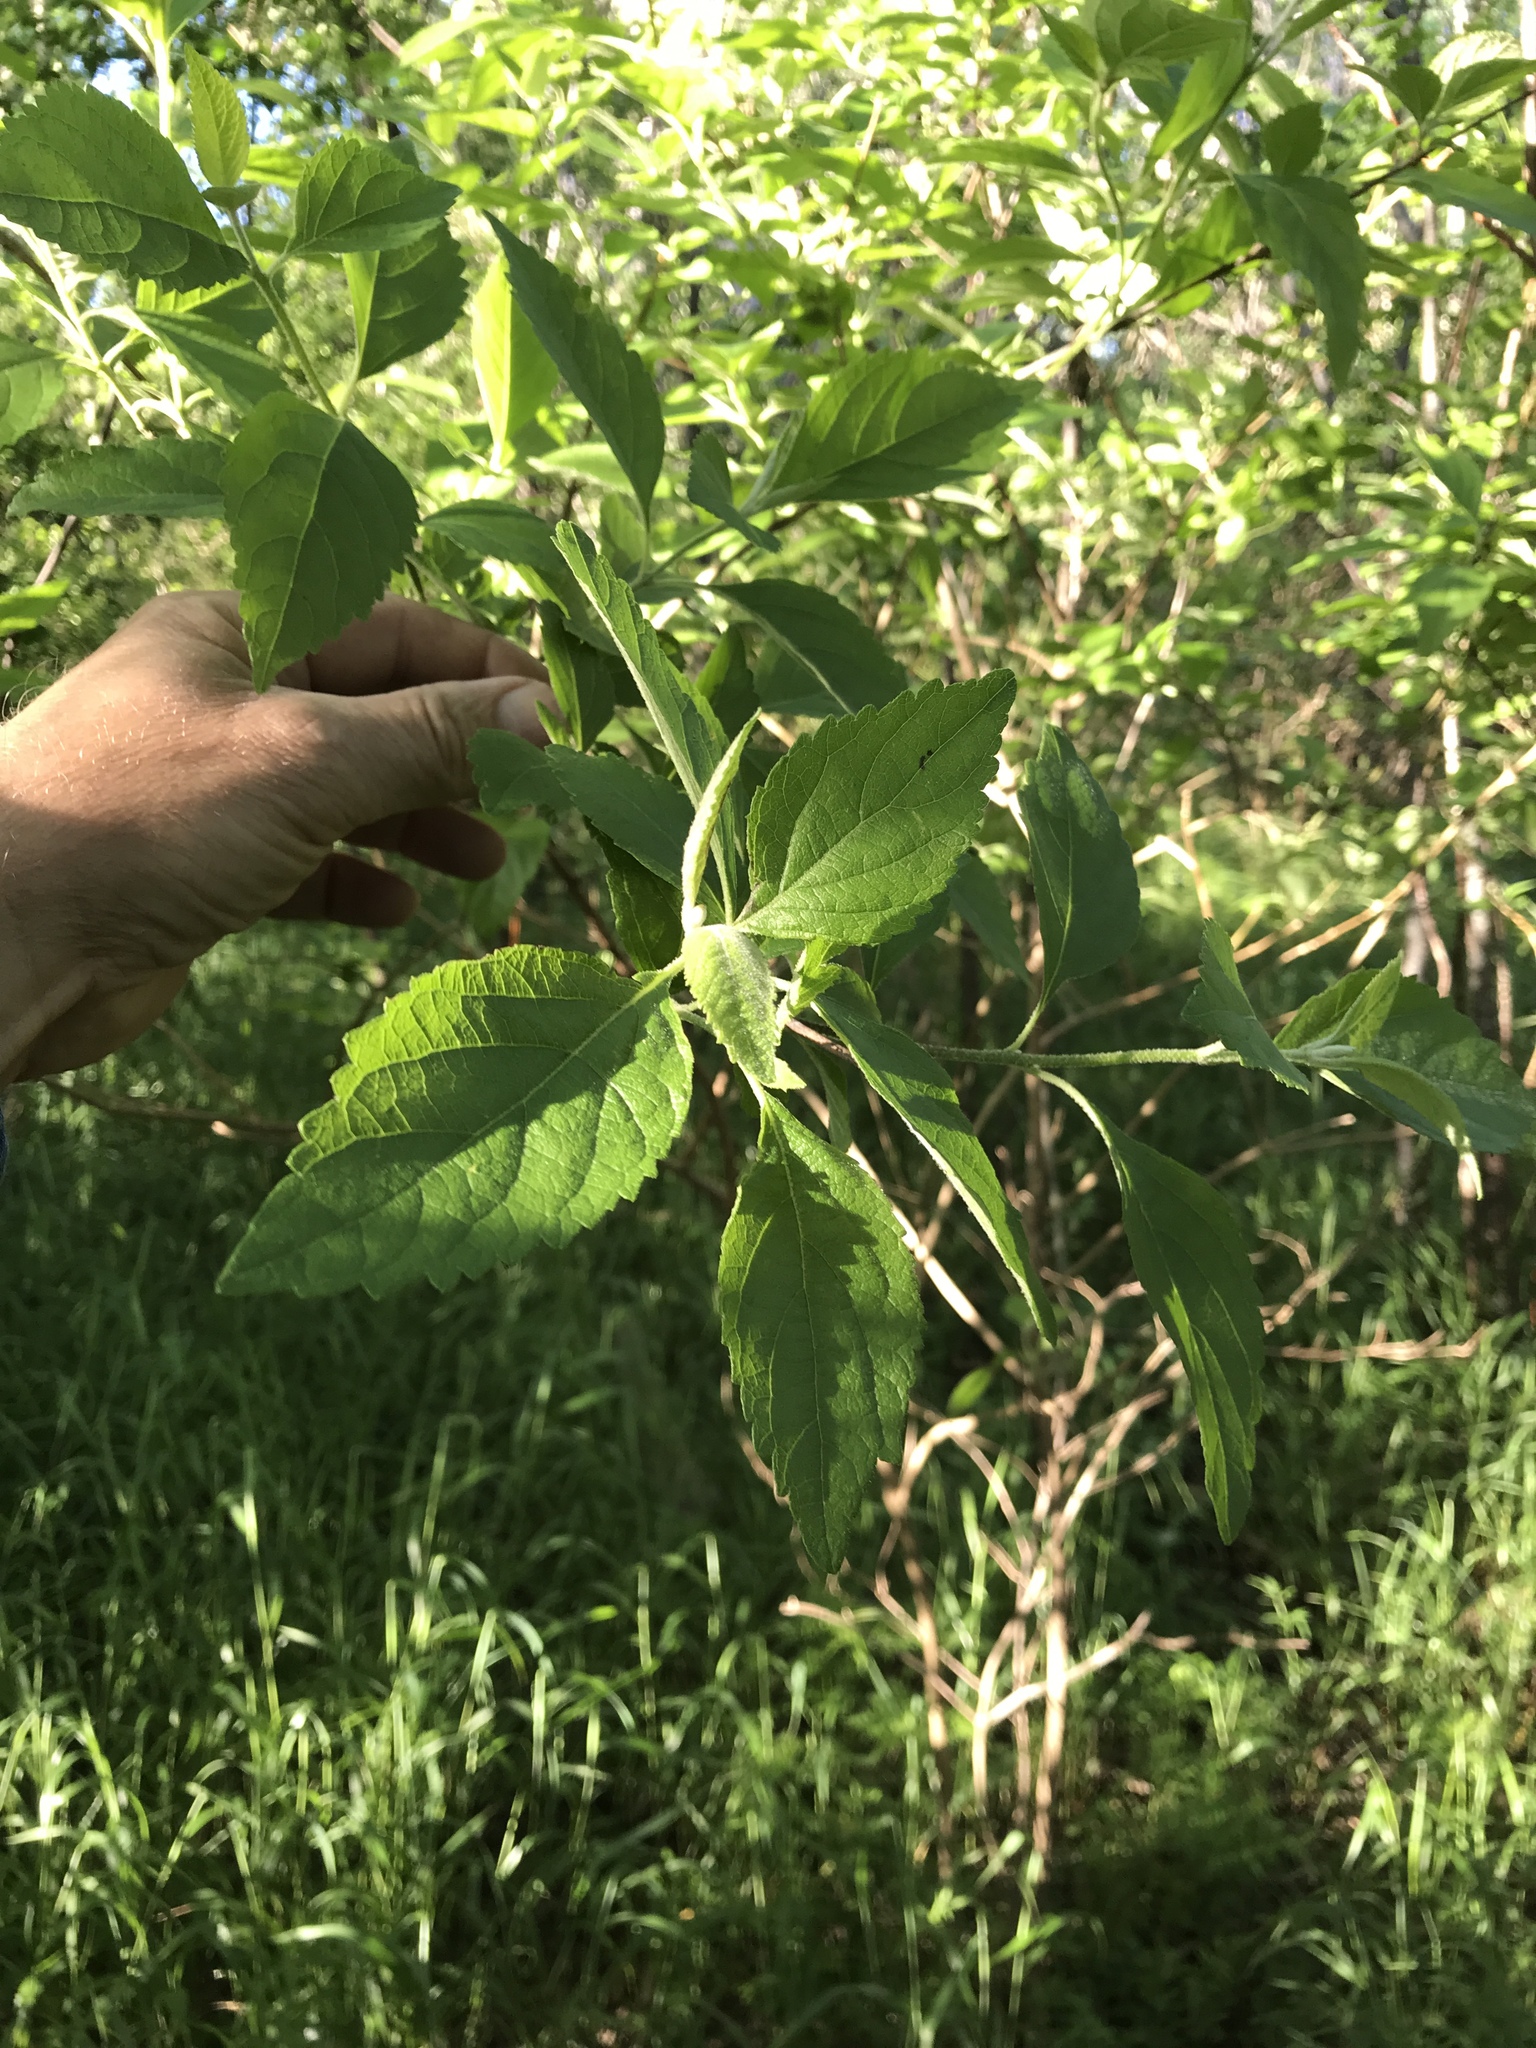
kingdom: Plantae
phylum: Tracheophyta
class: Magnoliopsida
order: Lamiales
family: Lamiaceae
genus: Callicarpa
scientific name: Callicarpa americana
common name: American beautyberry
